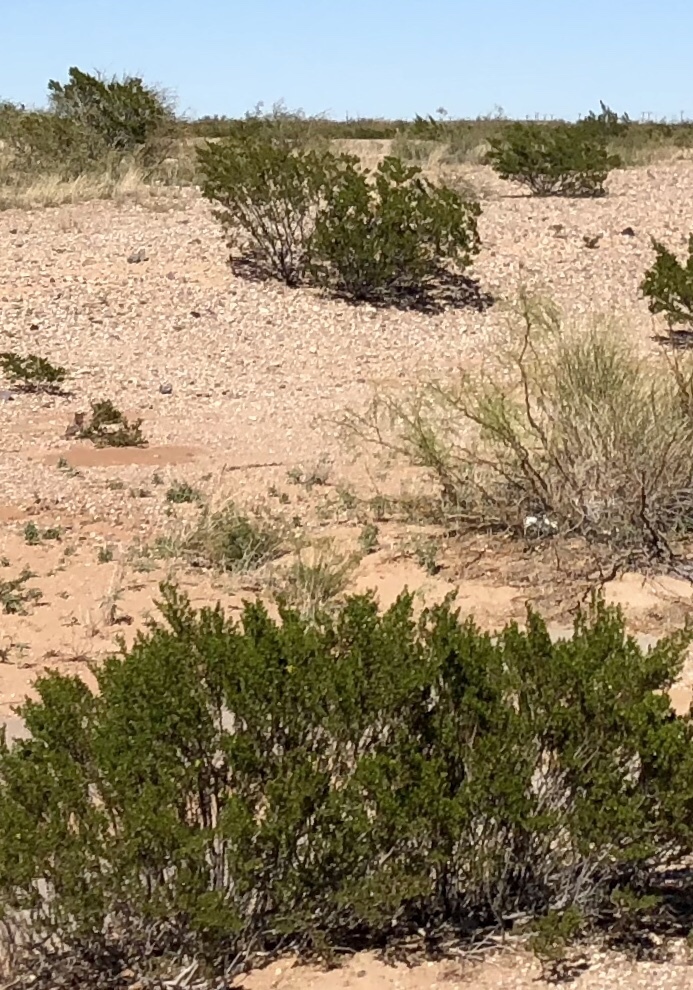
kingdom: Plantae
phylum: Tracheophyta
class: Magnoliopsida
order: Zygophyllales
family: Zygophyllaceae
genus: Larrea
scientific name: Larrea tridentata
